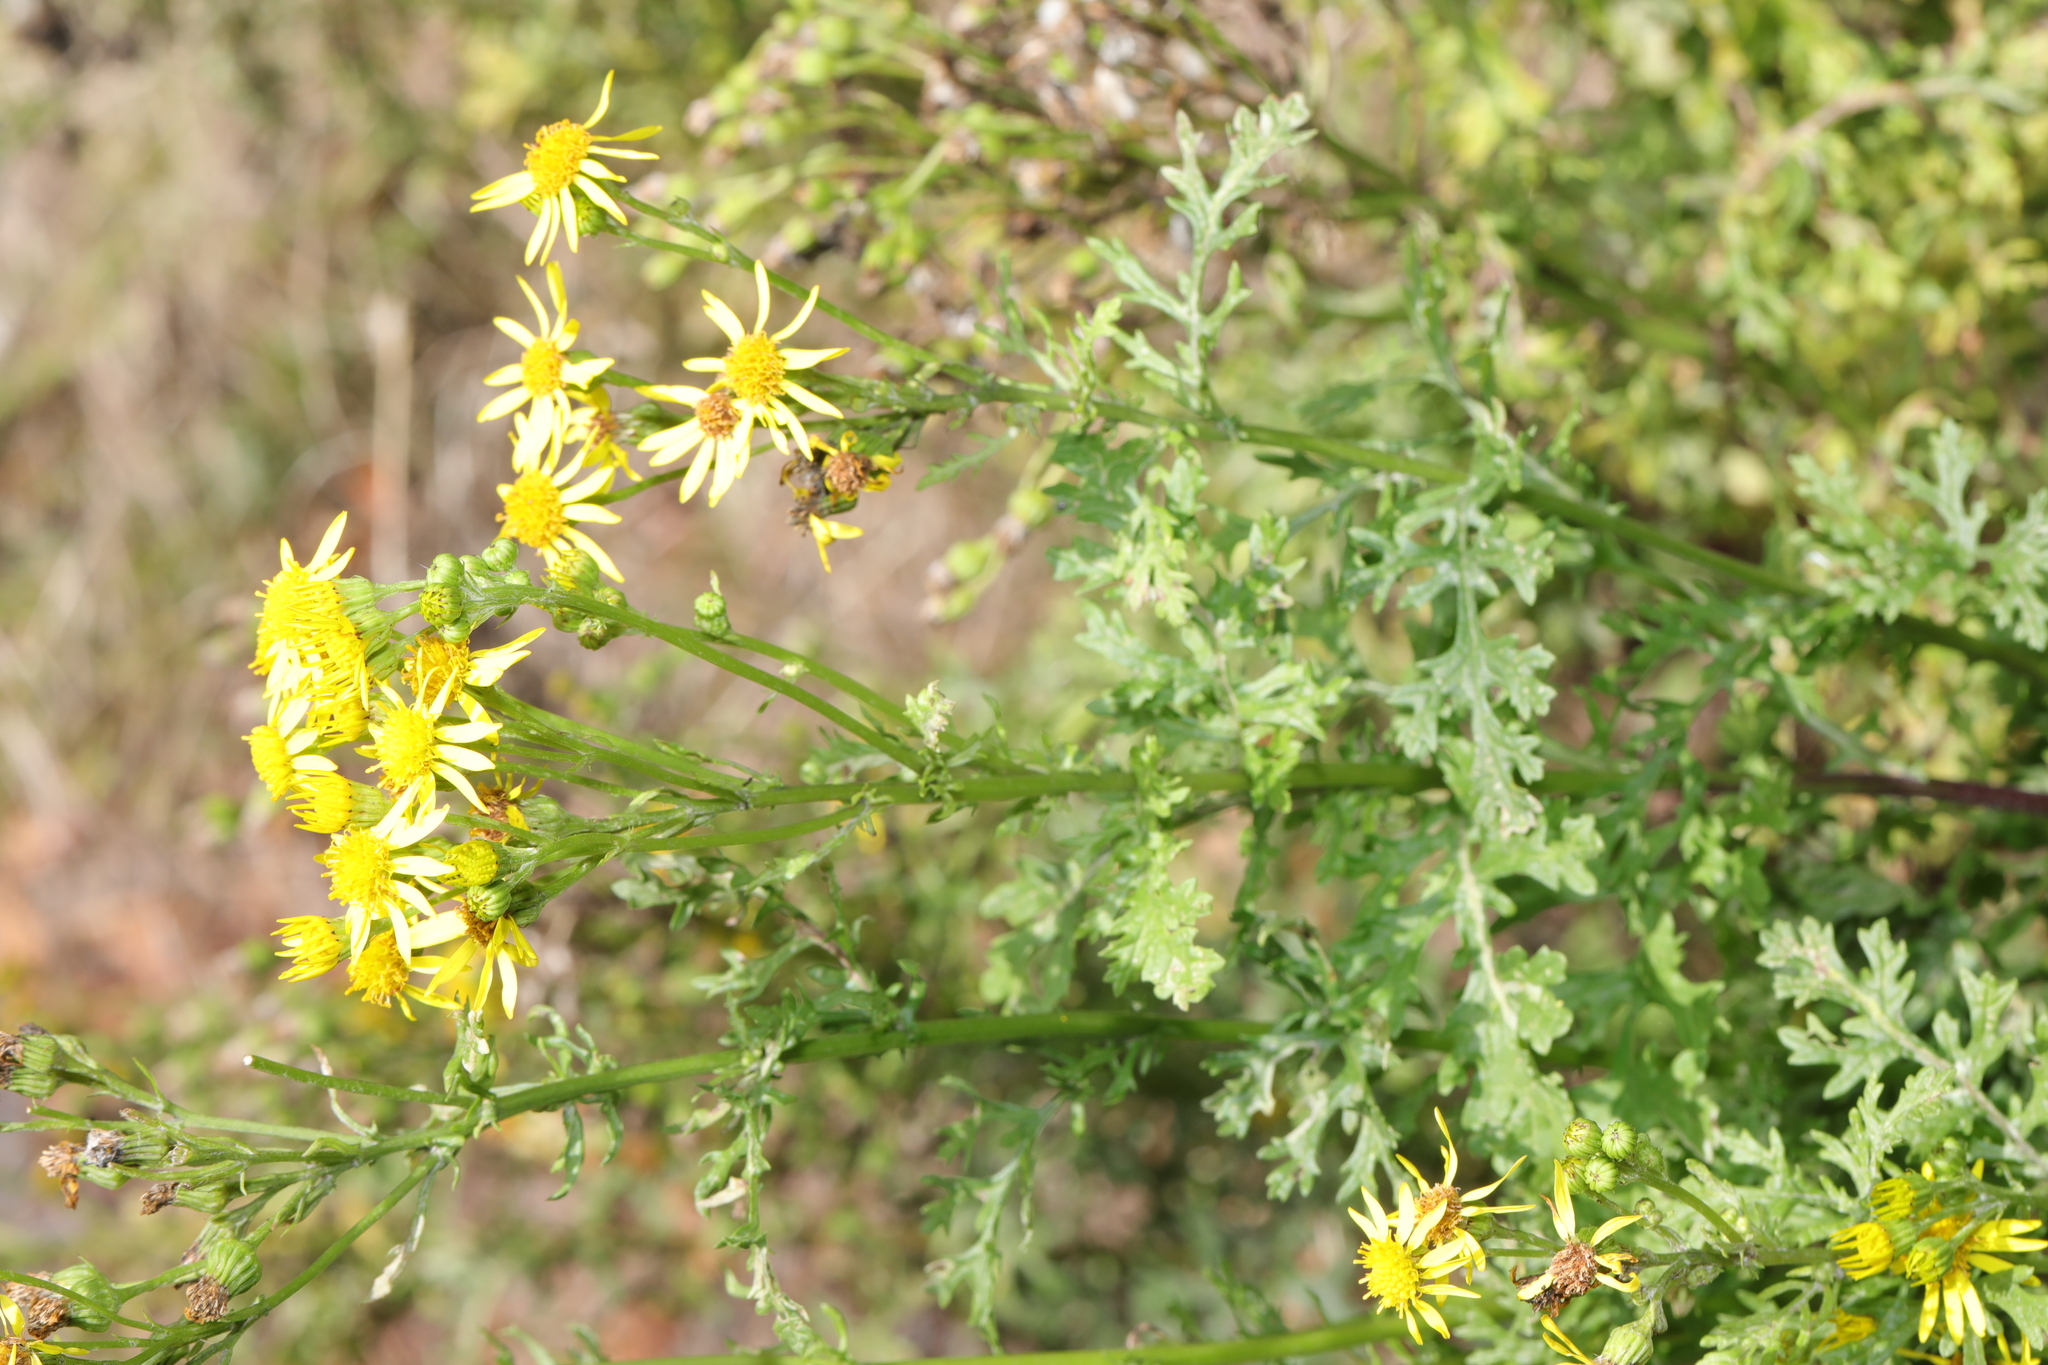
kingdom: Plantae
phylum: Tracheophyta
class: Magnoliopsida
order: Asterales
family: Asteraceae
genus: Jacobaea
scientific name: Jacobaea vulgaris
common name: Stinking willie
